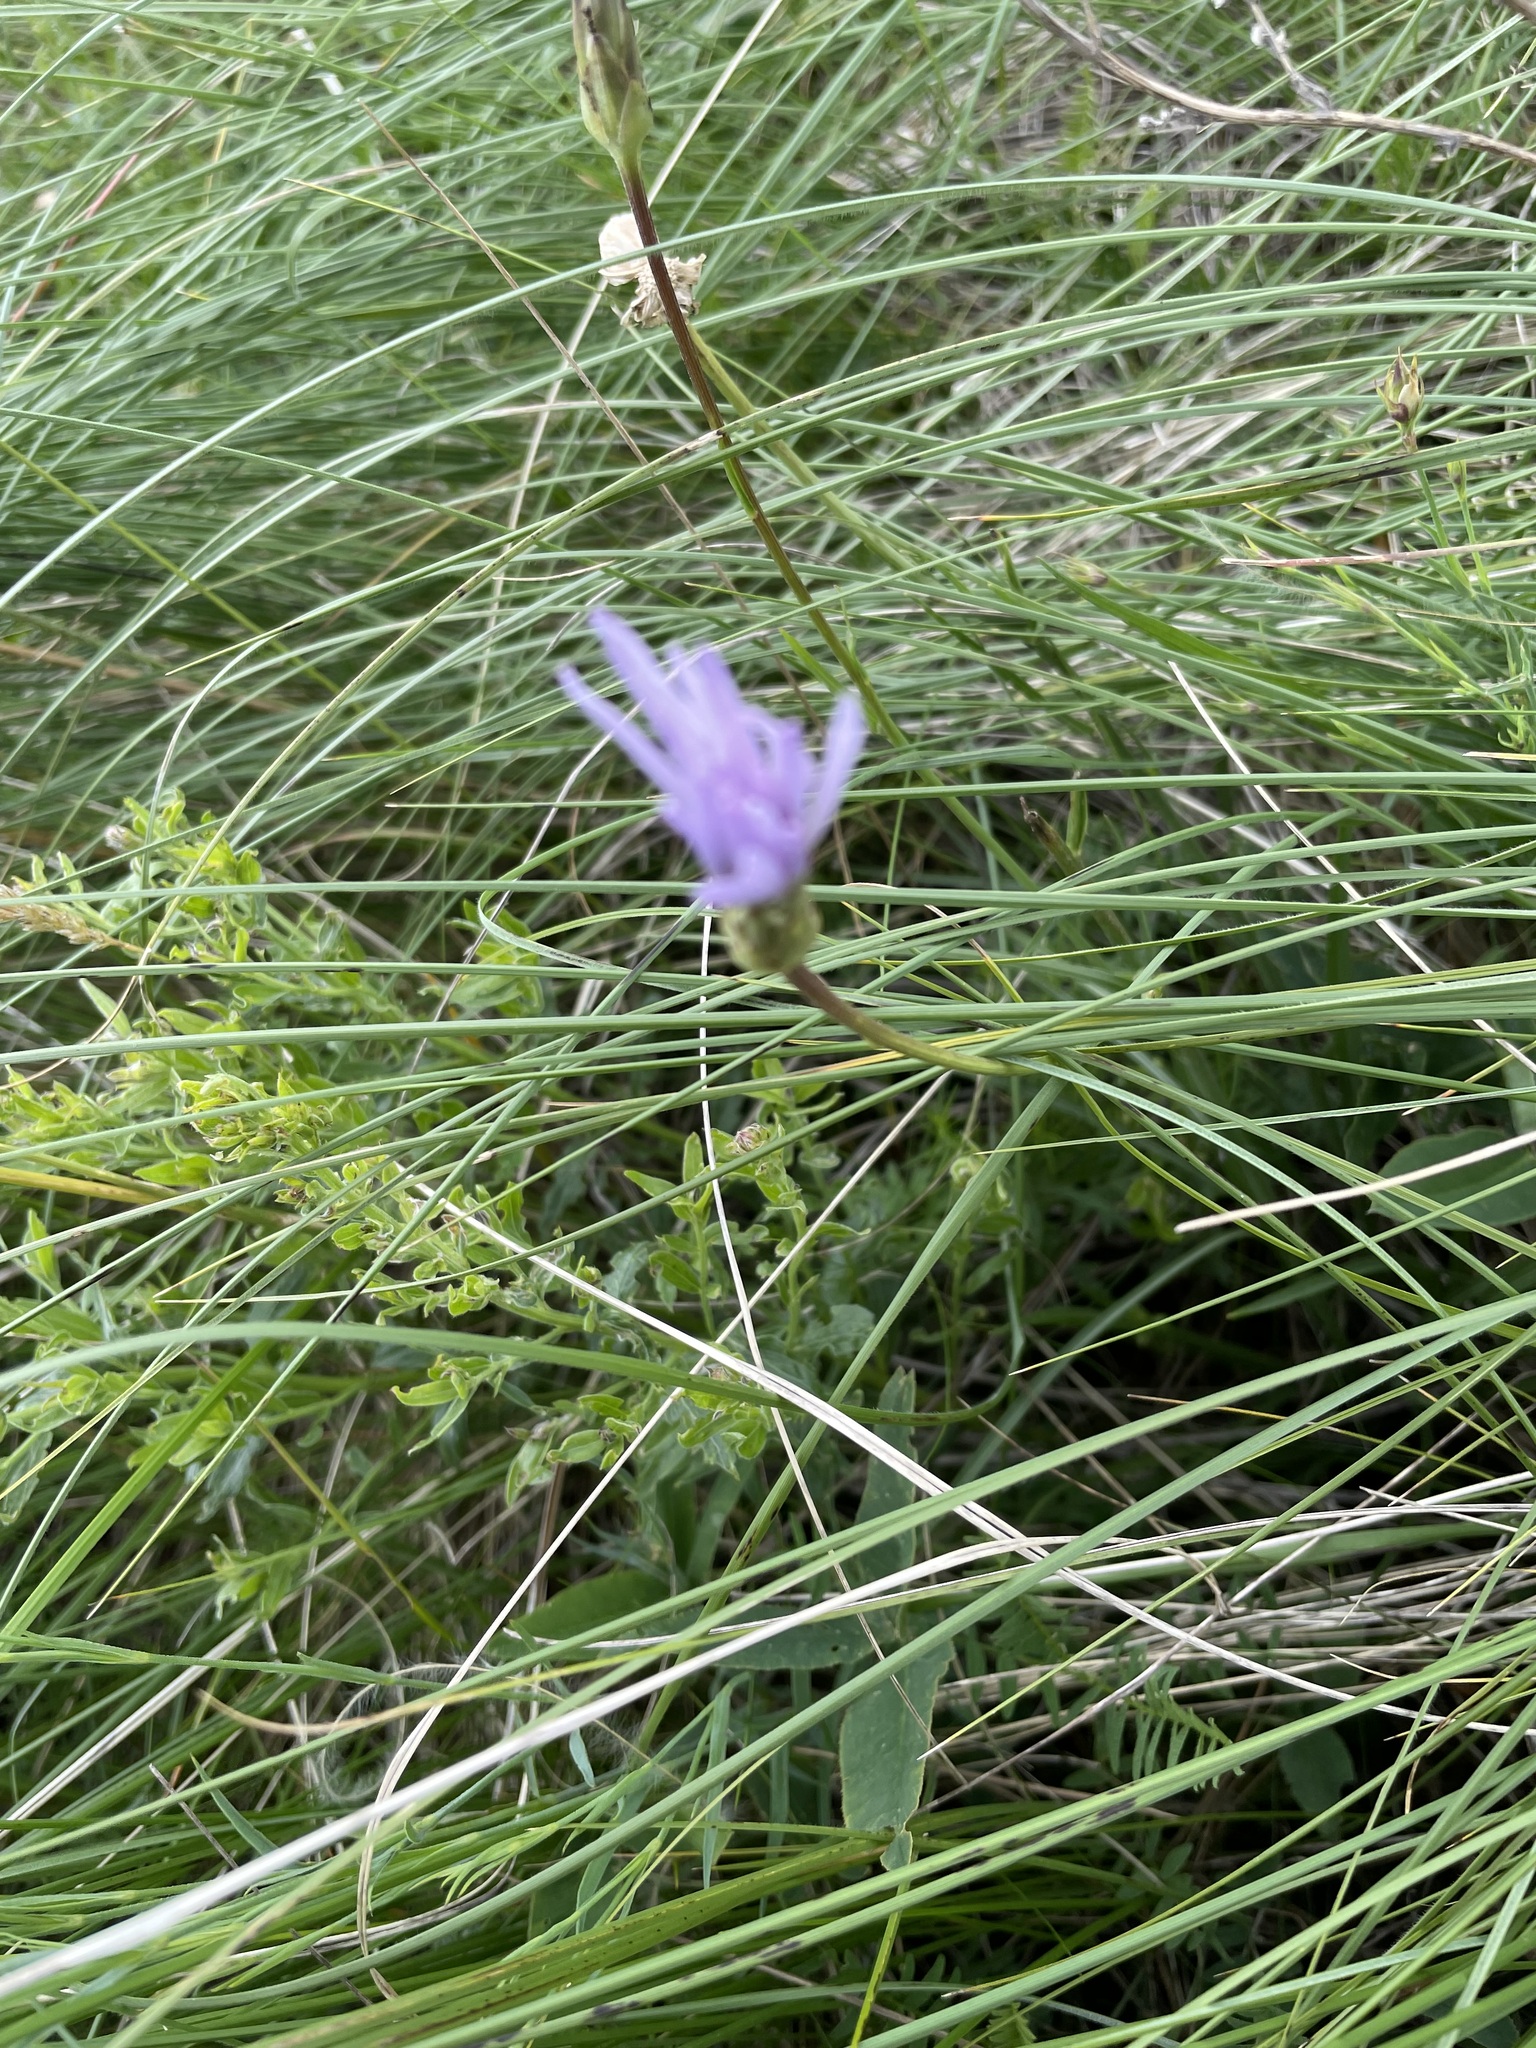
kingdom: Plantae
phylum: Tracheophyta
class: Magnoliopsida
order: Asterales
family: Asteraceae
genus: Scorzonera
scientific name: Scorzonera purpurea
